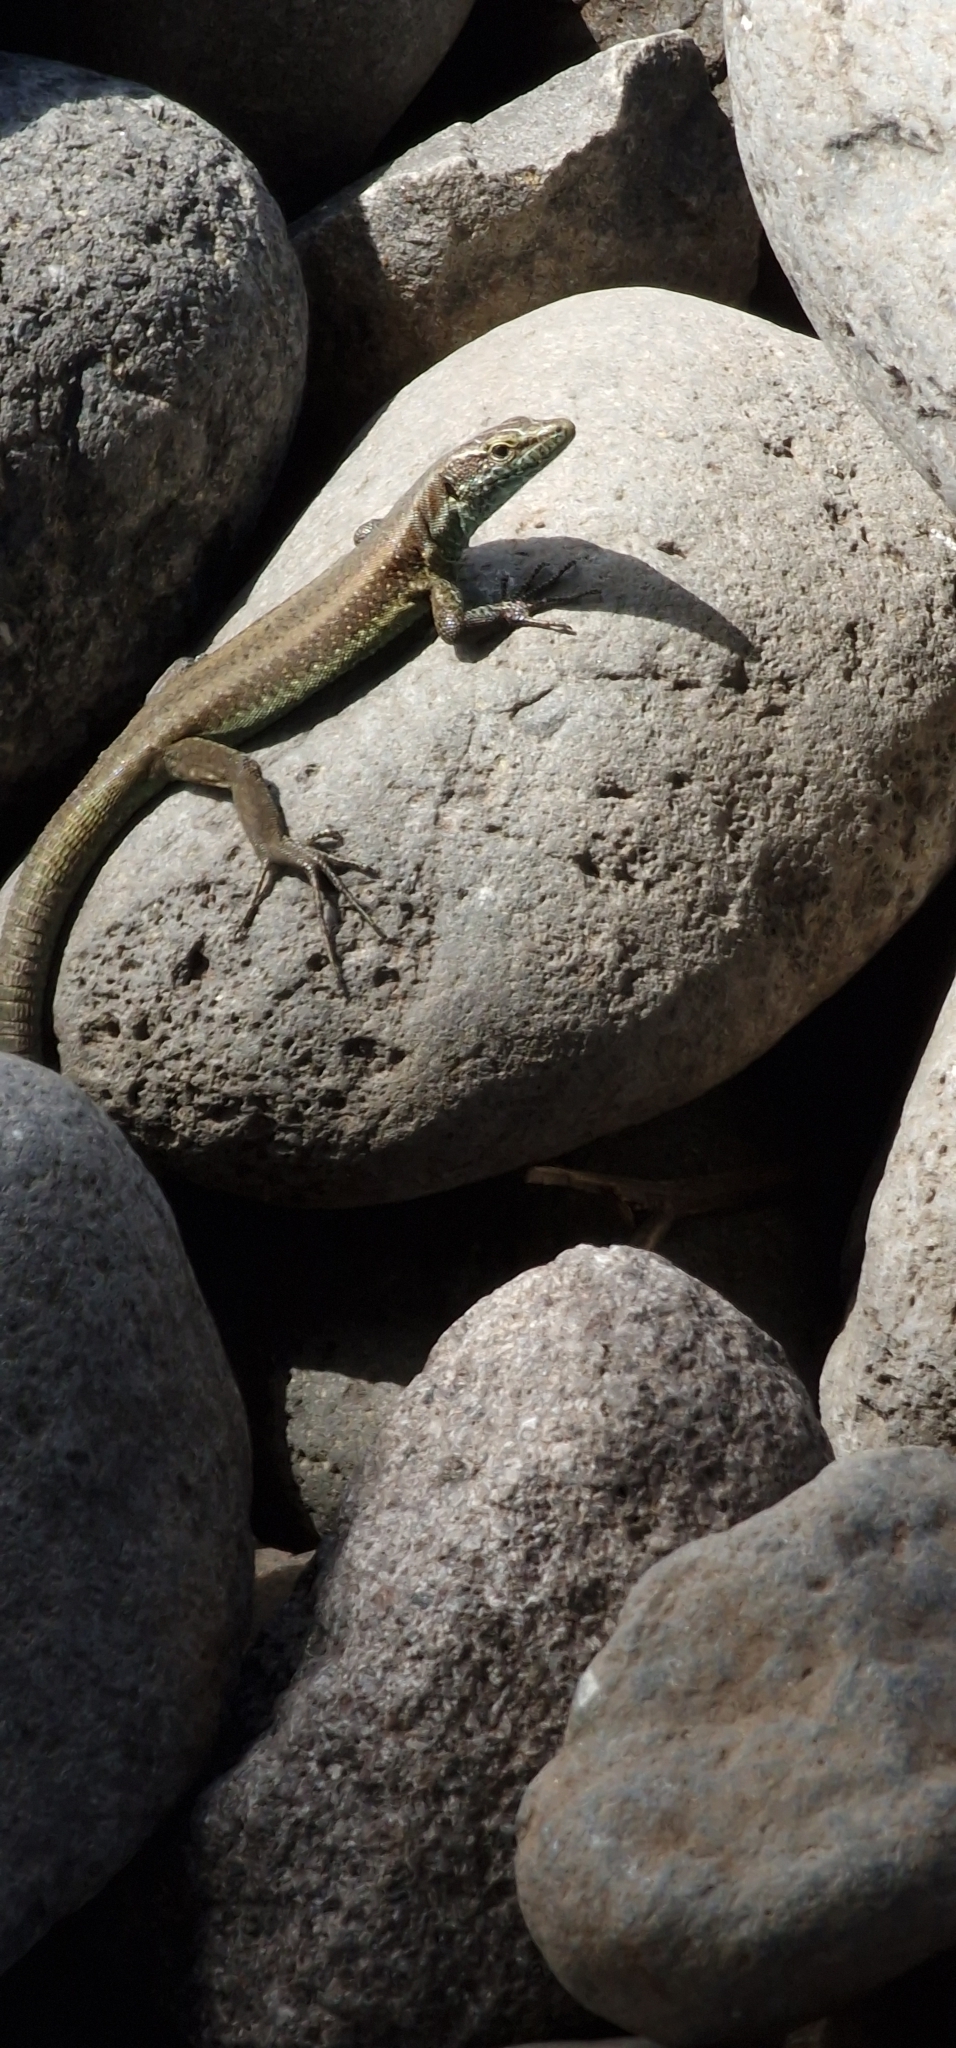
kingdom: Animalia
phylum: Chordata
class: Squamata
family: Lacertidae
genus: Teira
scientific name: Teira dugesii
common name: Madeira lizard
